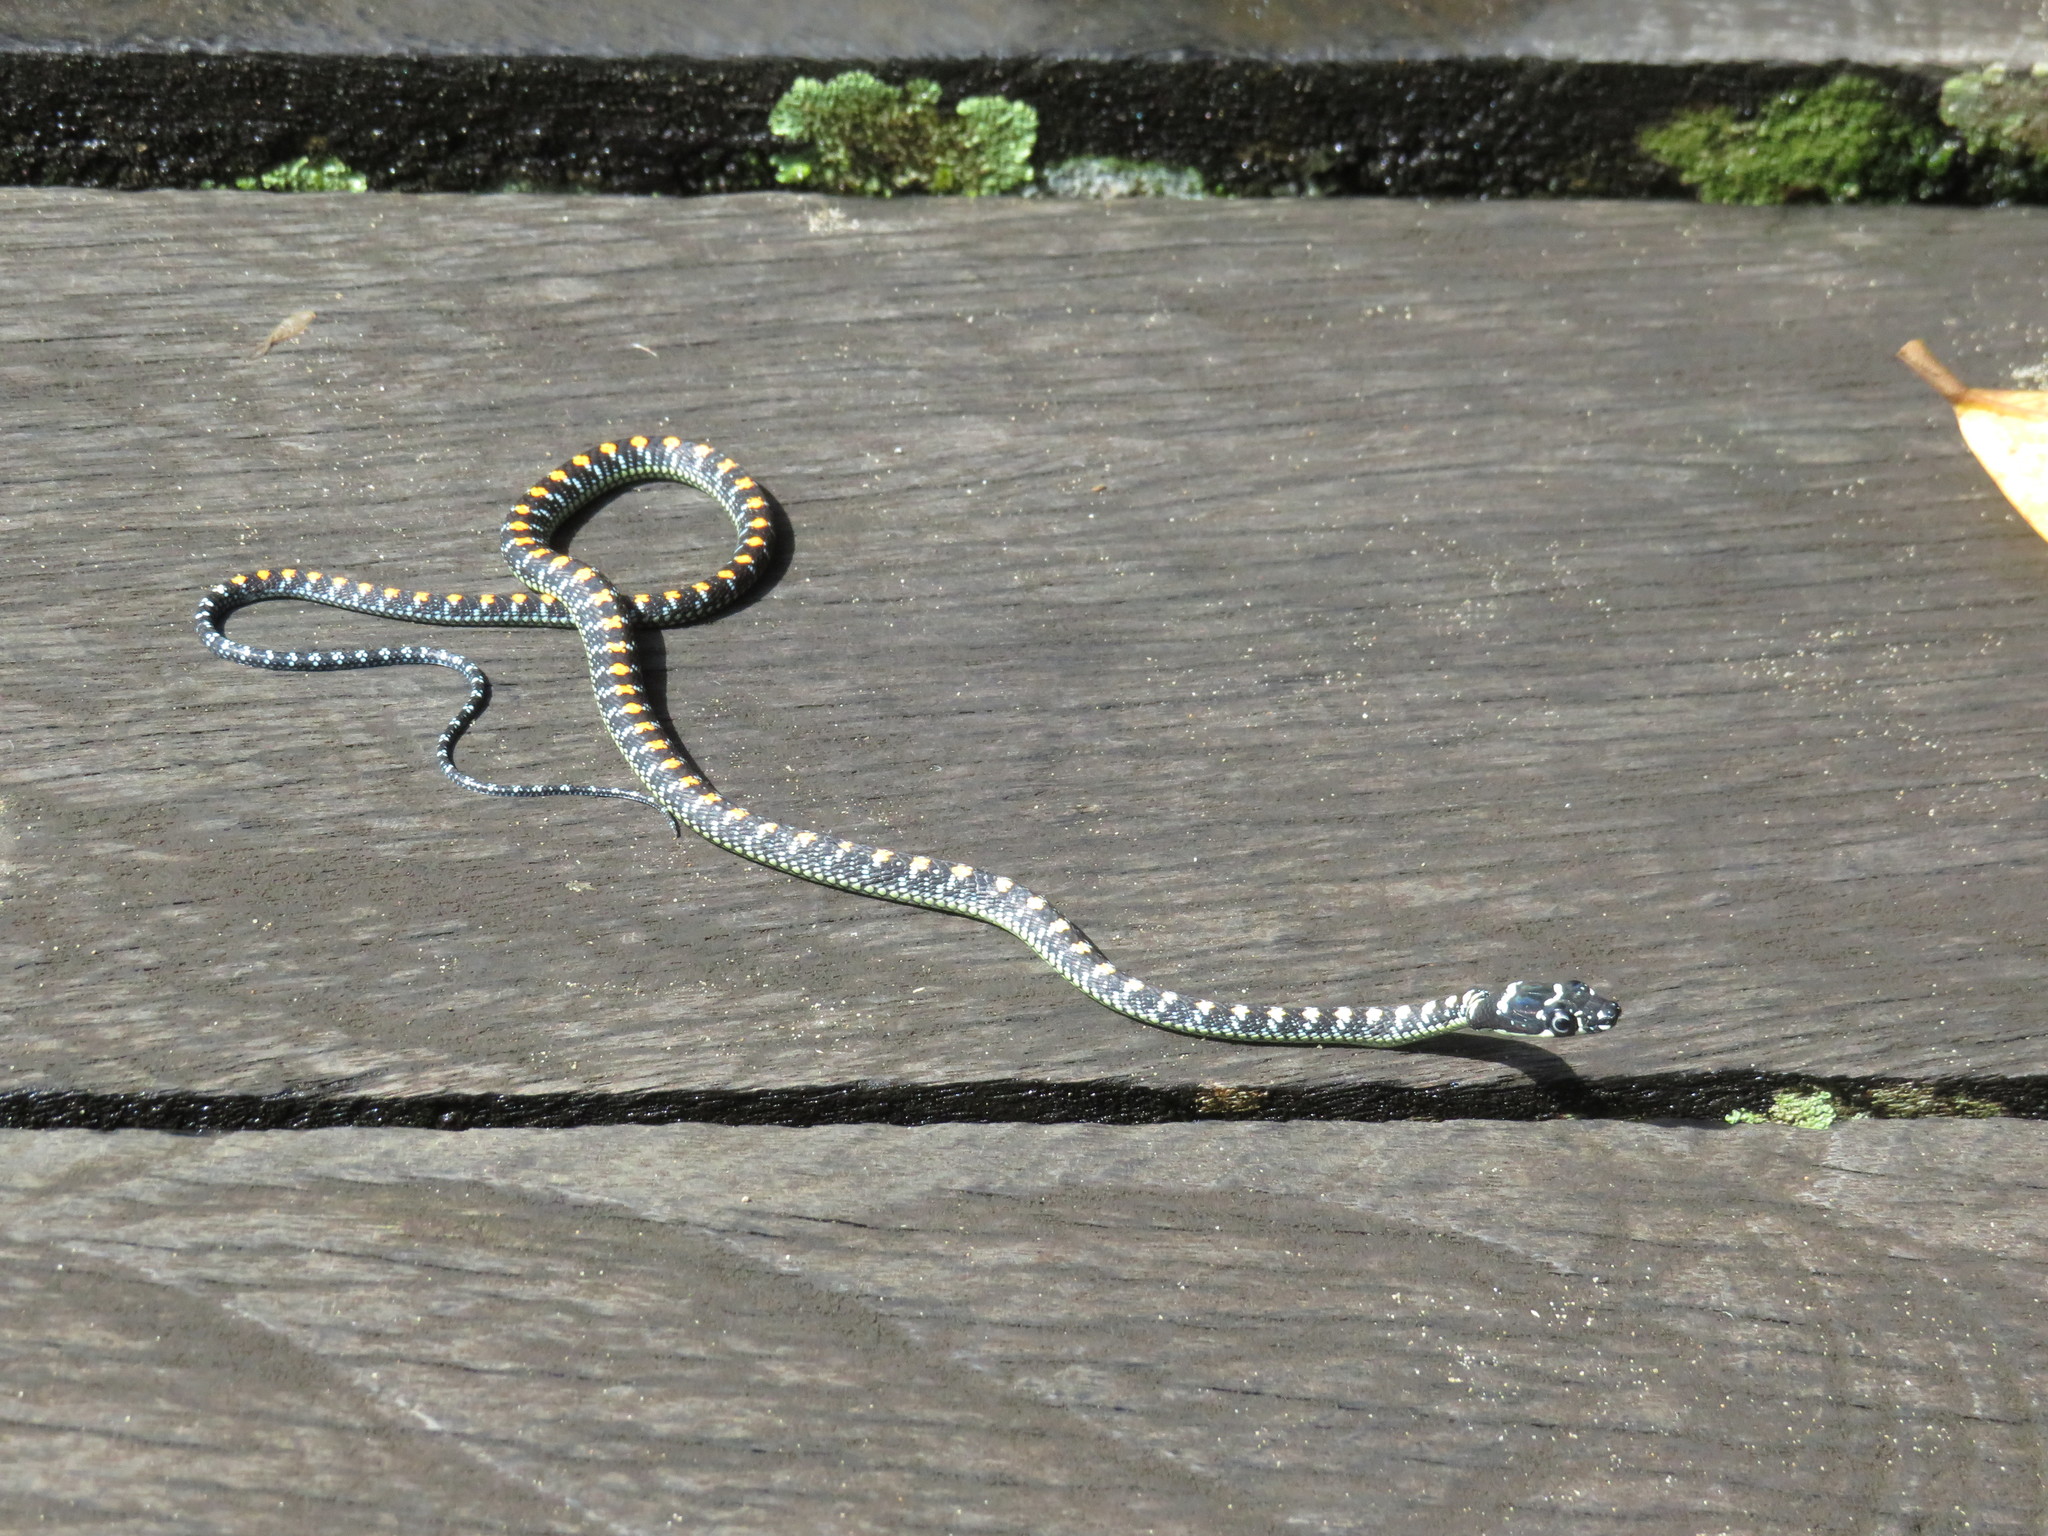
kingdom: Animalia
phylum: Chordata
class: Squamata
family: Colubridae
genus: Chrysopelea
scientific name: Chrysopelea paradisi
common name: Paradise tree snake
